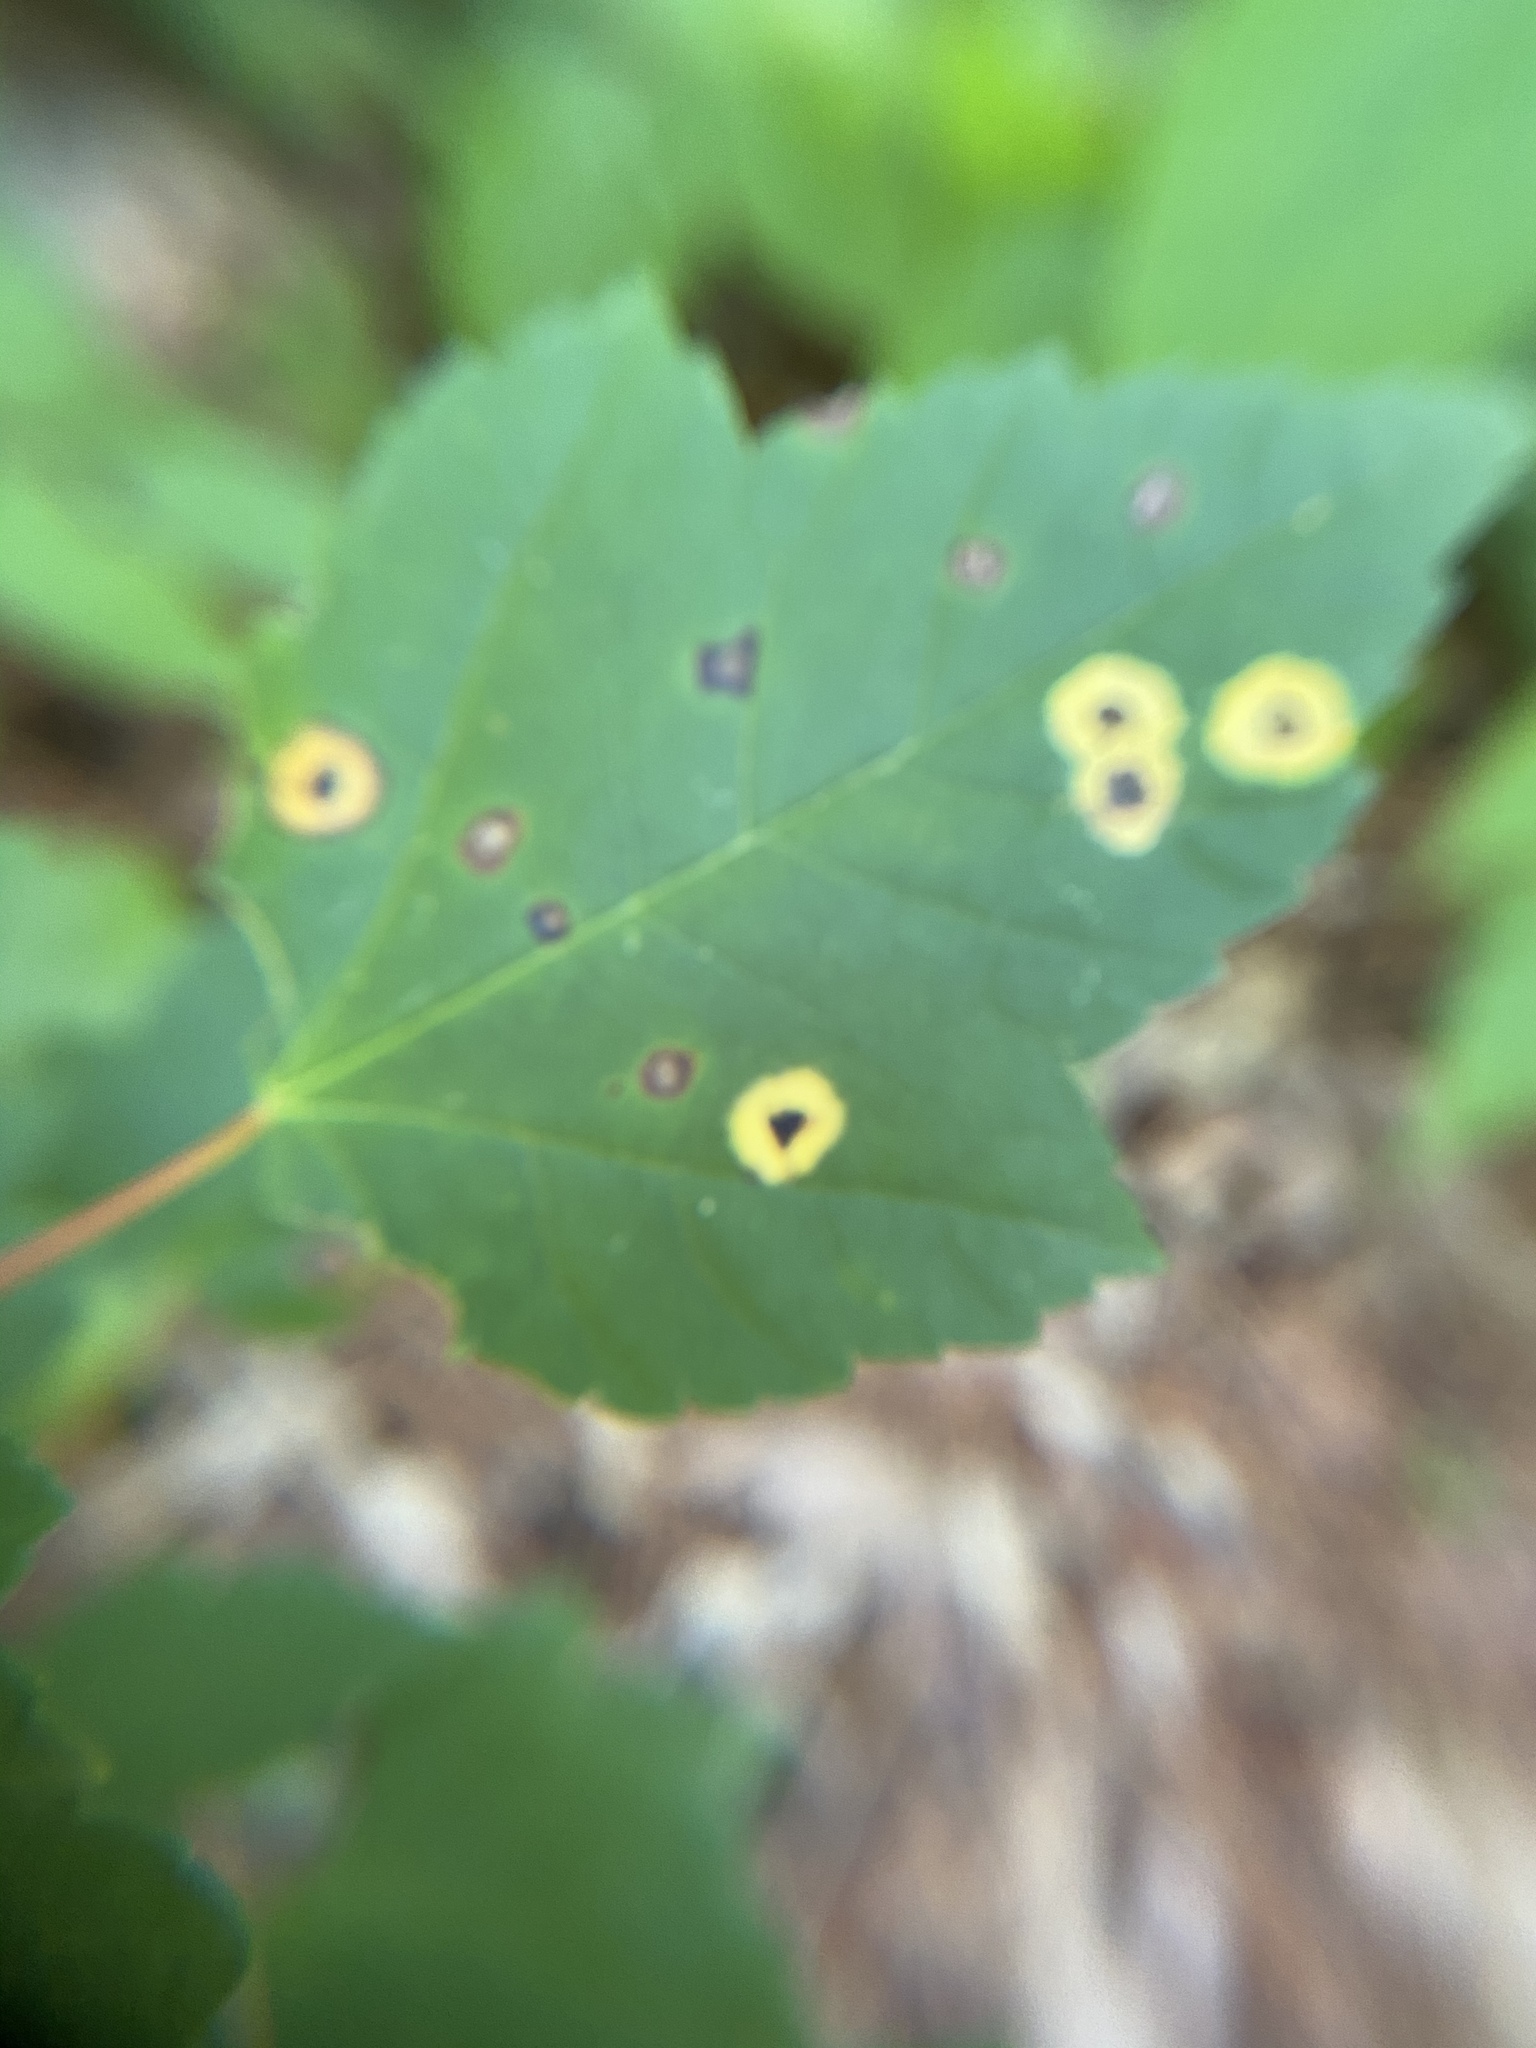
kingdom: Animalia
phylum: Arthropoda
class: Insecta
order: Diptera
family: Cecidomyiidae
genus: Acericecis
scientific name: Acericecis ocellaris
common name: Ocellate gall midge
